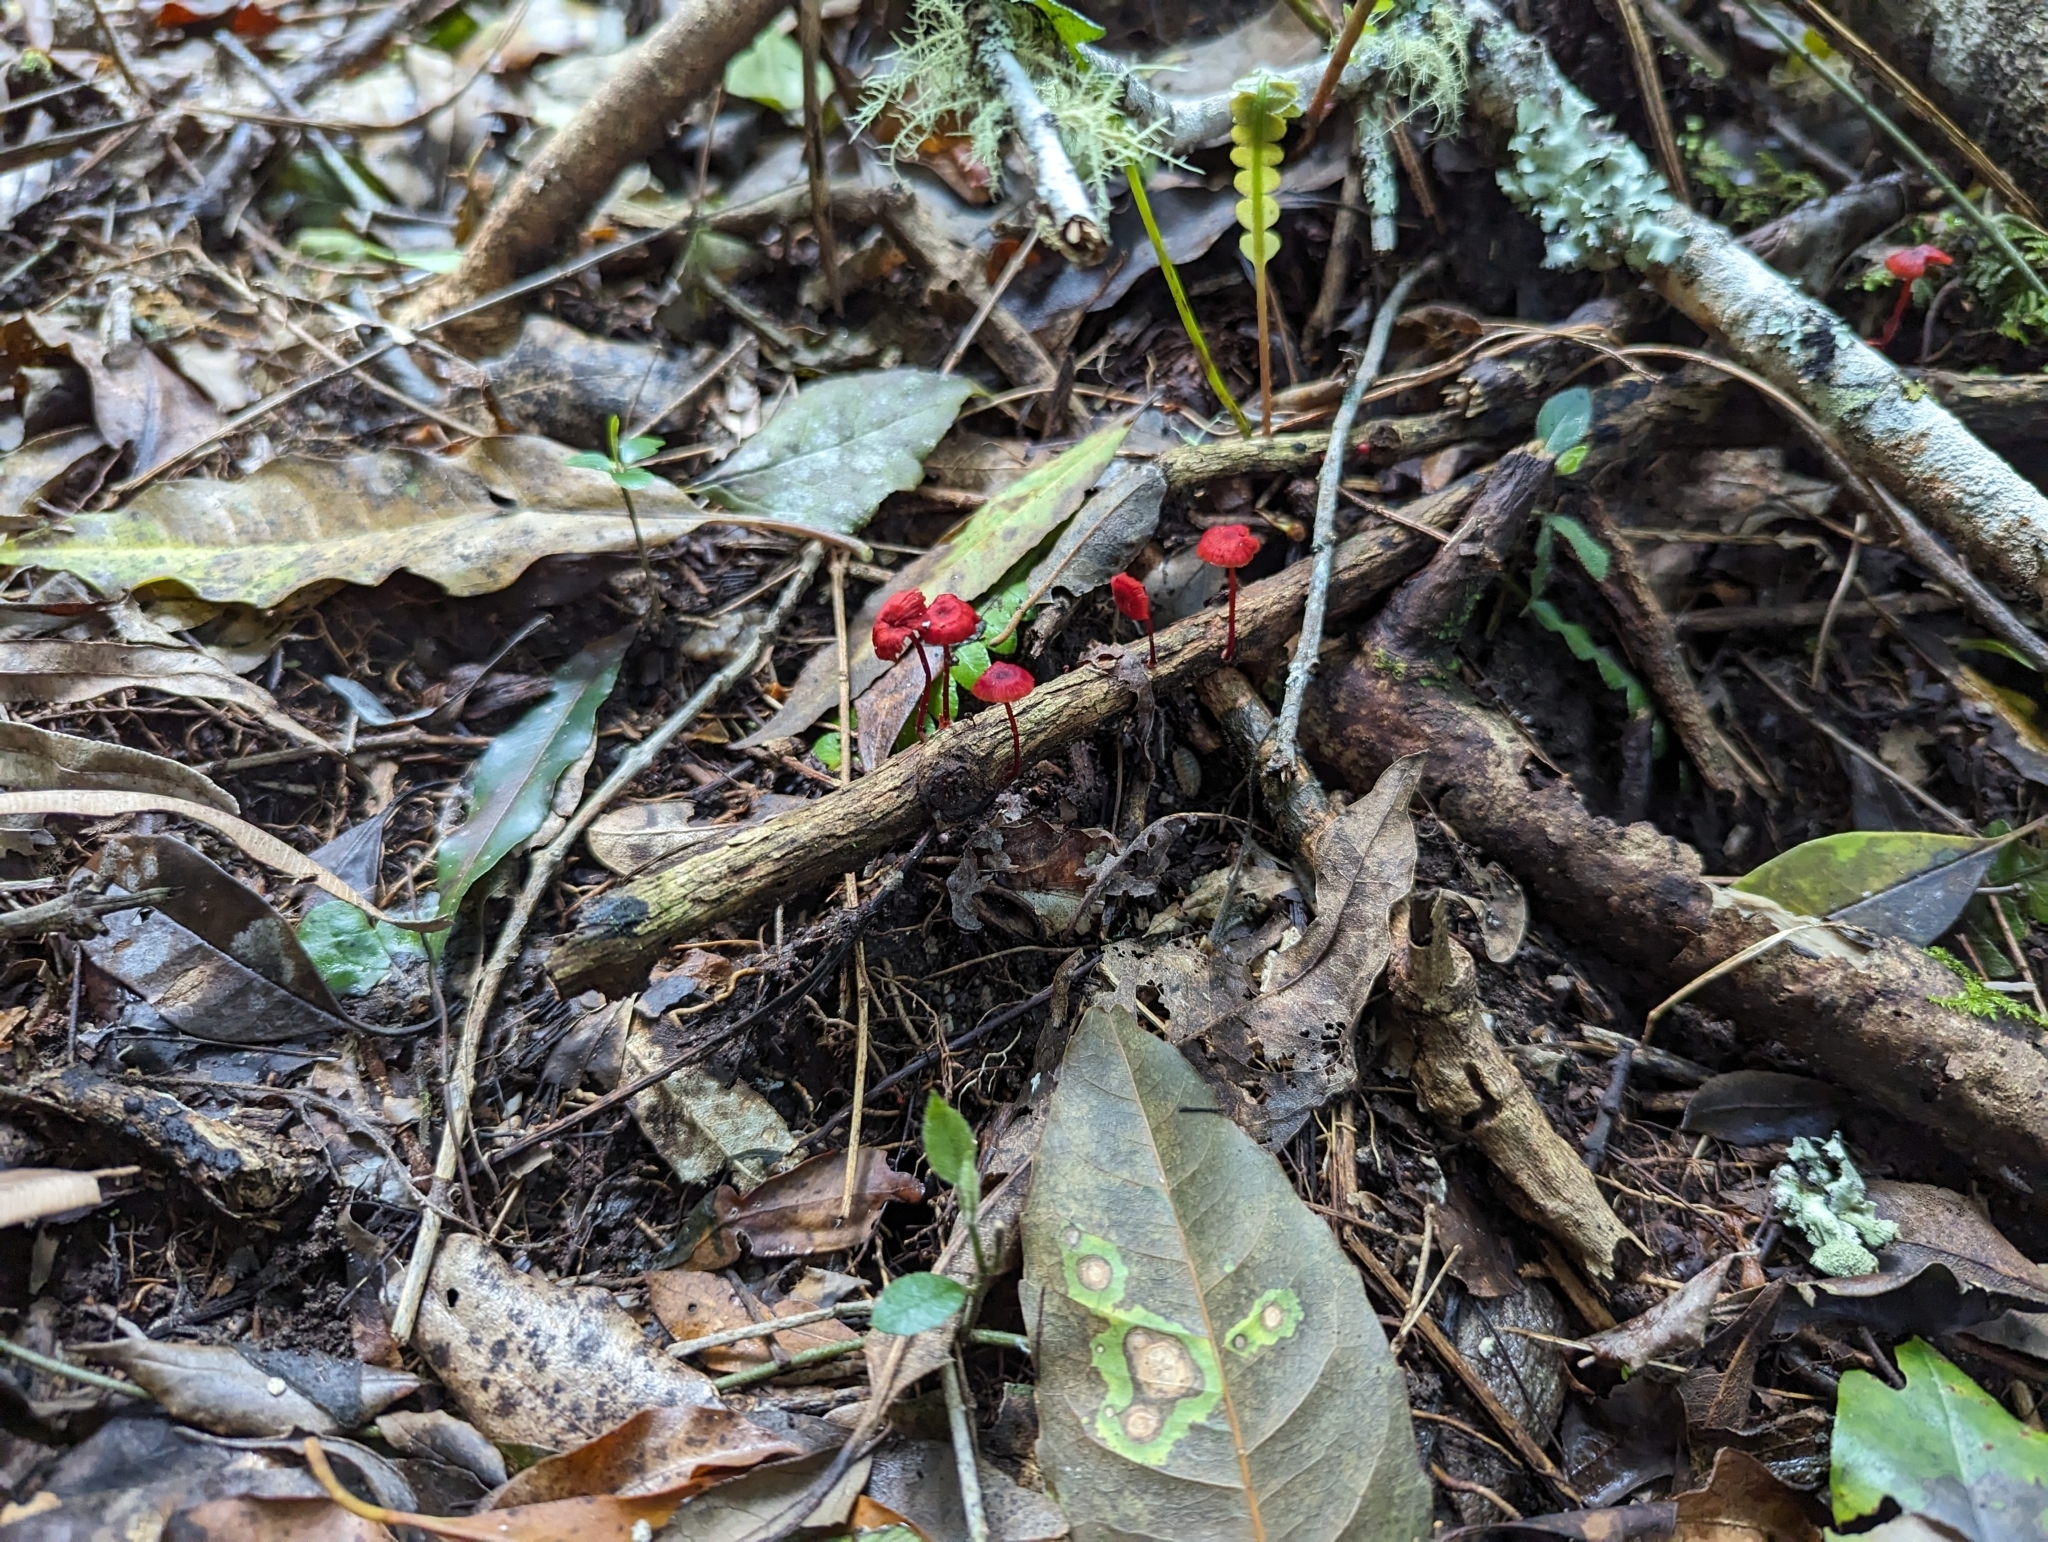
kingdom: Fungi
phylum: Basidiomycota
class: Agaricomycetes
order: Agaricales
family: Mycenaceae
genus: Cruentomycena
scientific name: Cruentomycena viscidocruenta
